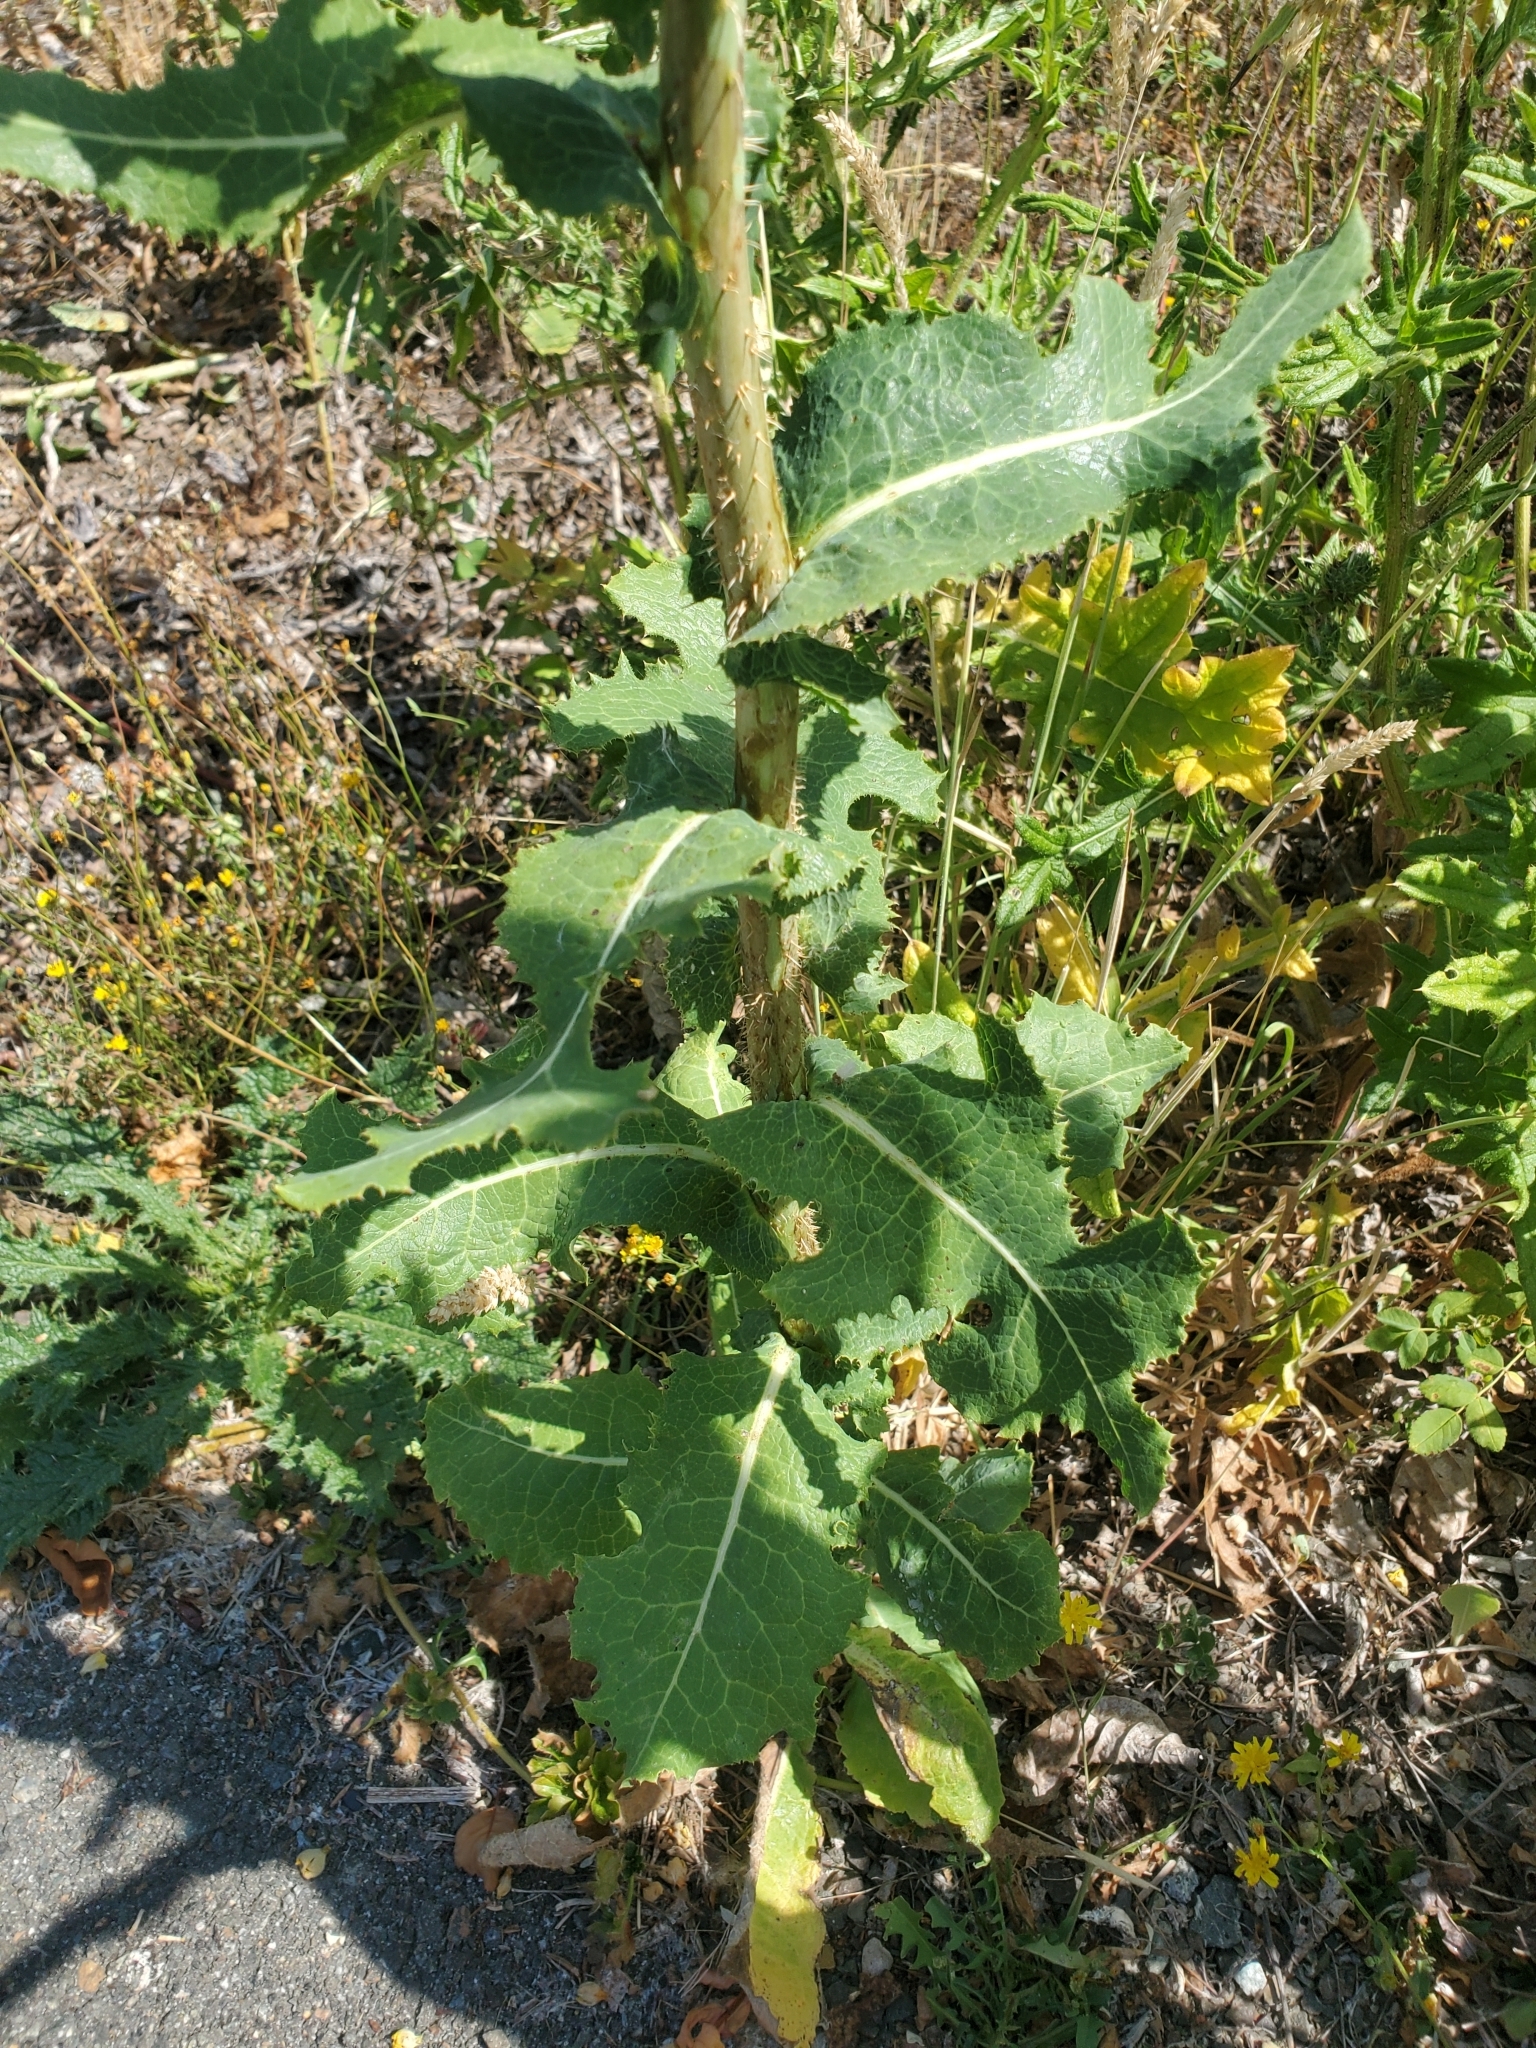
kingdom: Plantae
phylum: Tracheophyta
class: Magnoliopsida
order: Asterales
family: Asteraceae
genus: Lactuca
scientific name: Lactuca serriola
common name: Prickly lettuce
